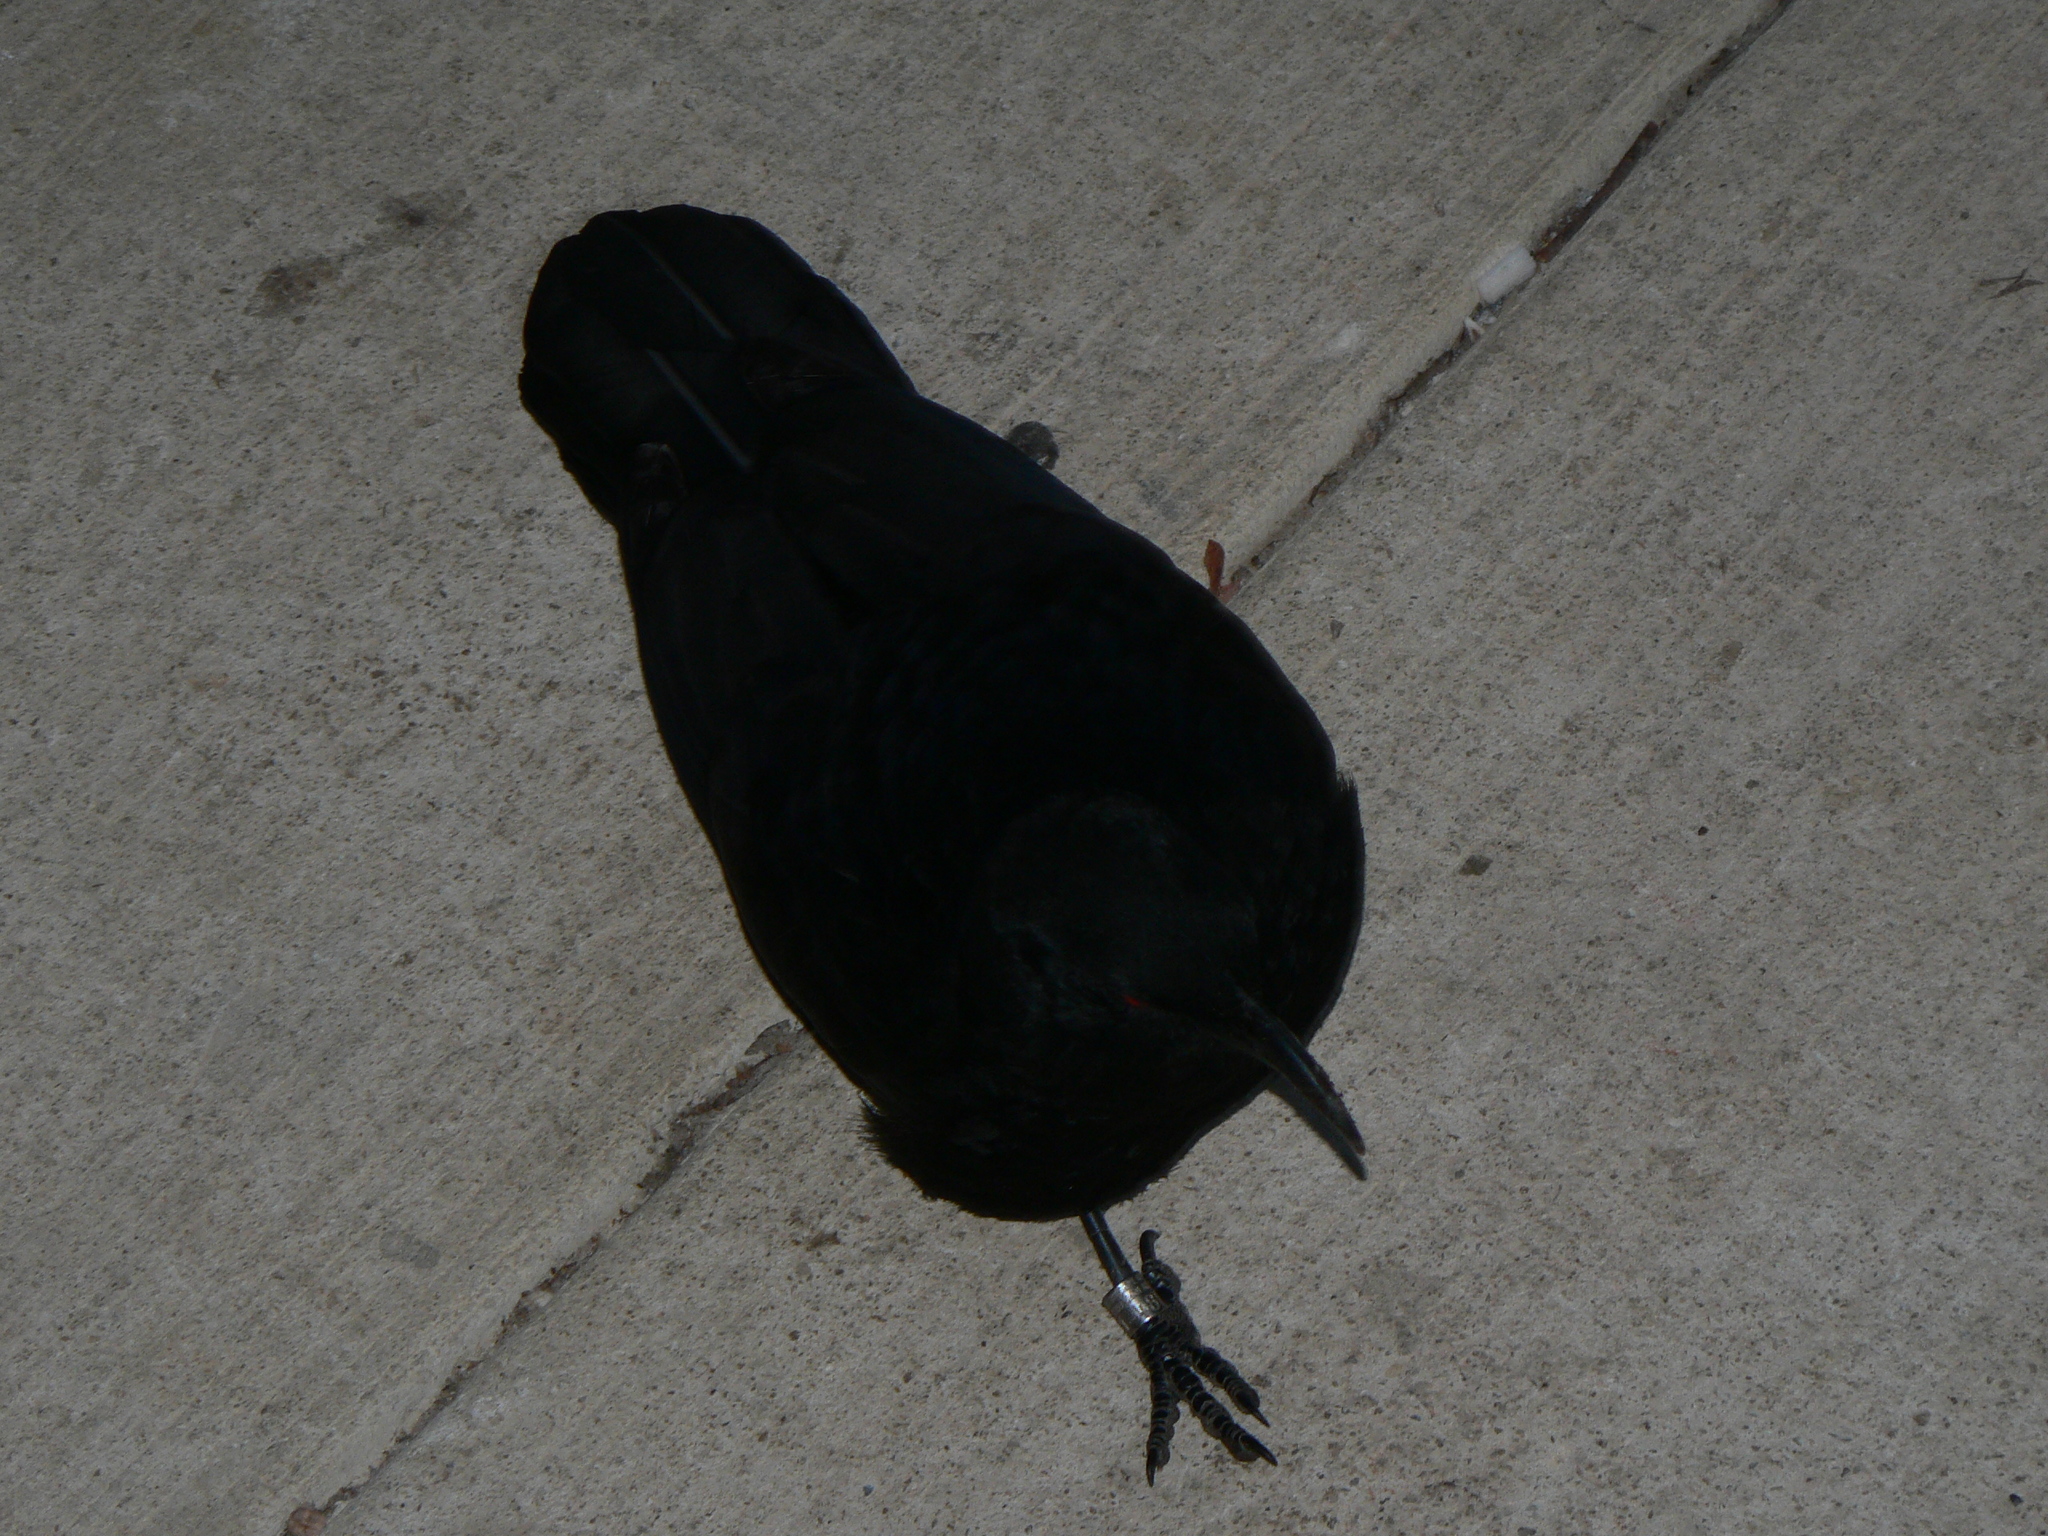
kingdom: Animalia
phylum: Chordata
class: Aves
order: Passeriformes
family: Corcoracidae
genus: Corcorax
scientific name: Corcorax melanoramphos
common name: White-winged chough
